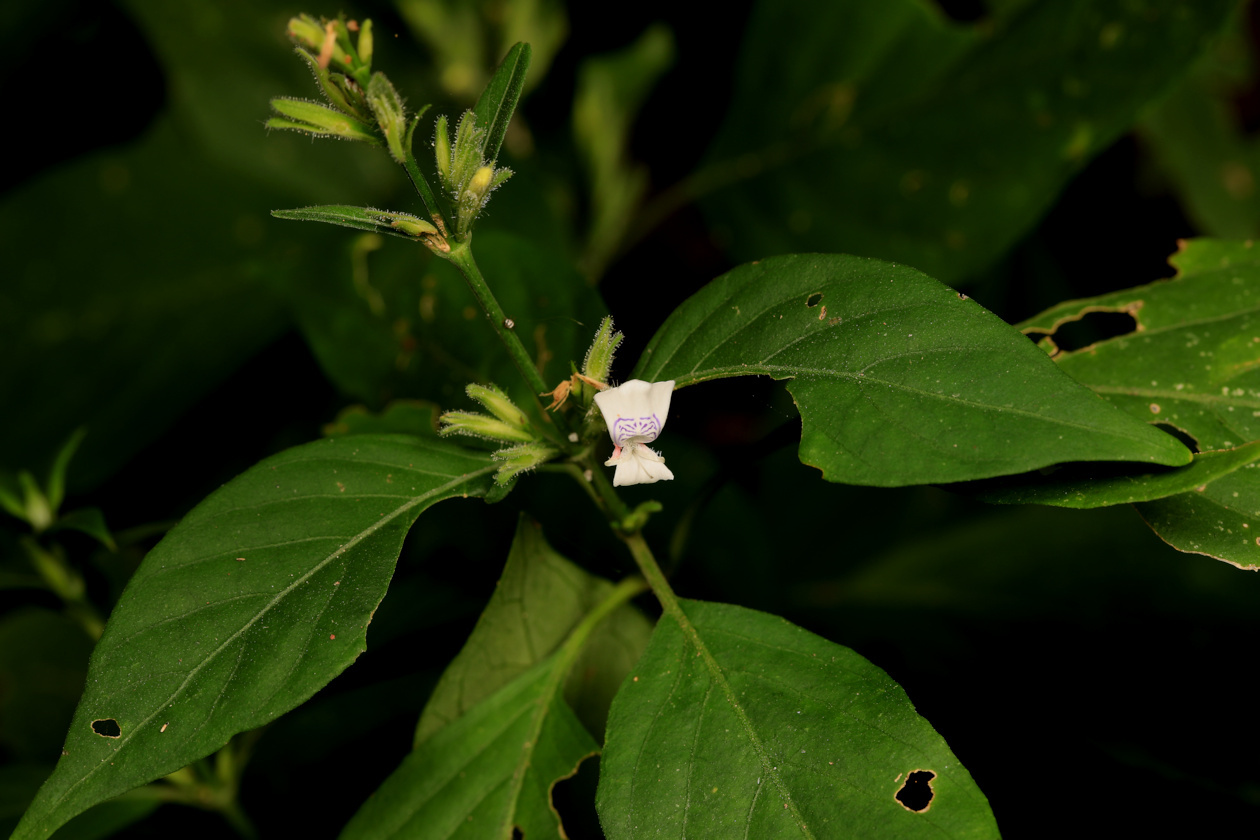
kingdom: Plantae
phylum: Tracheophyta
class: Magnoliopsida
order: Lamiales
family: Acanthaceae
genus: Hypoestes
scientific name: Hypoestes forskaolii
